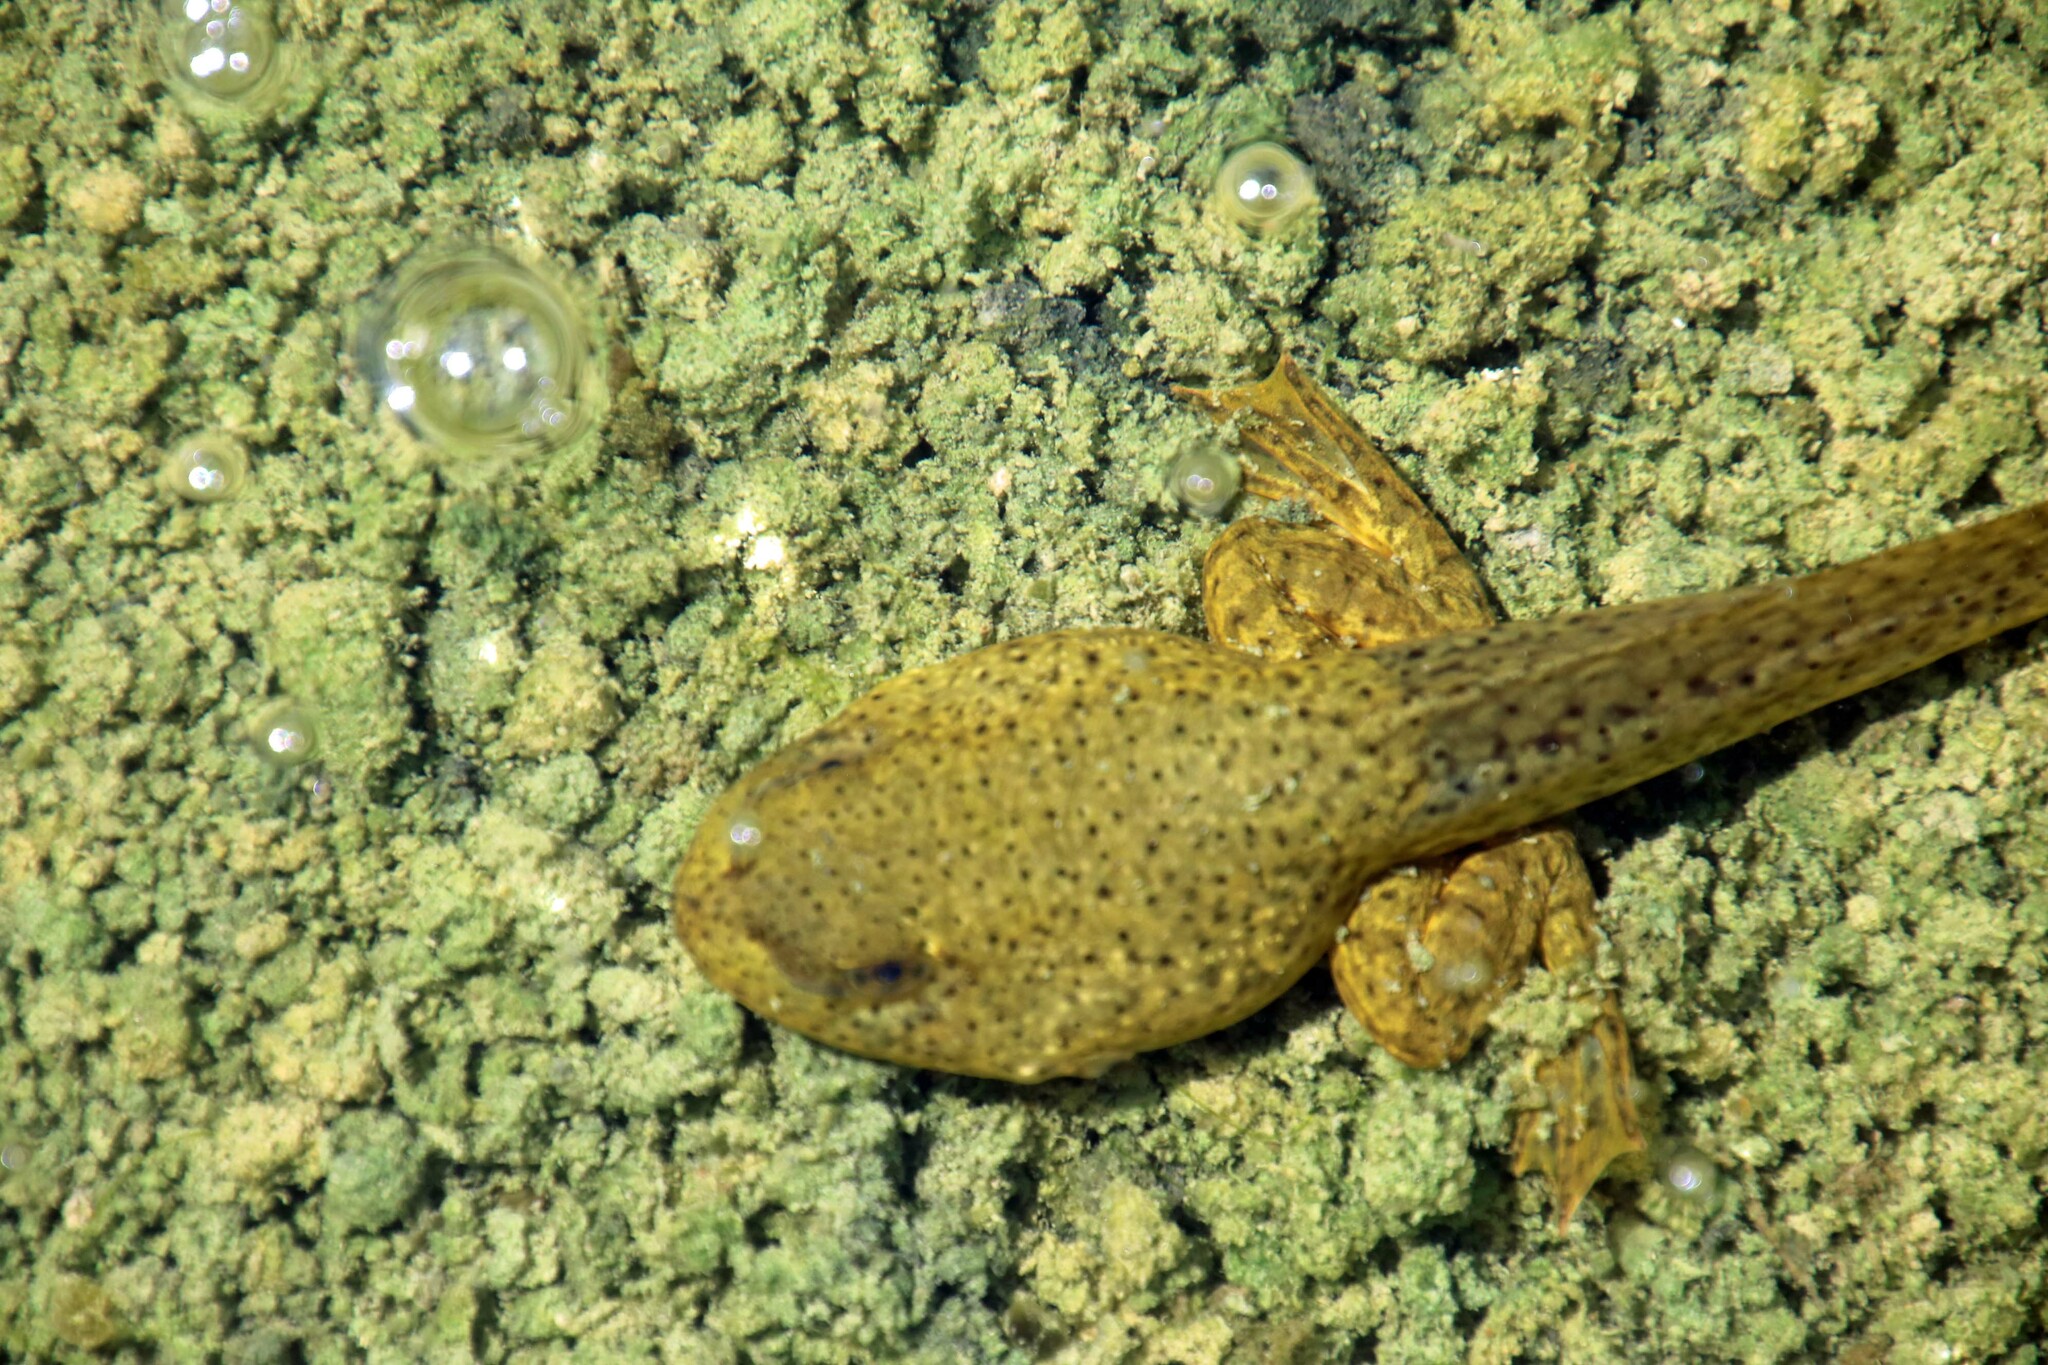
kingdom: Animalia
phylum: Chordata
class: Amphibia
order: Anura
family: Ranidae
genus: Lithobates
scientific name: Lithobates catesbeianus
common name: American bullfrog
